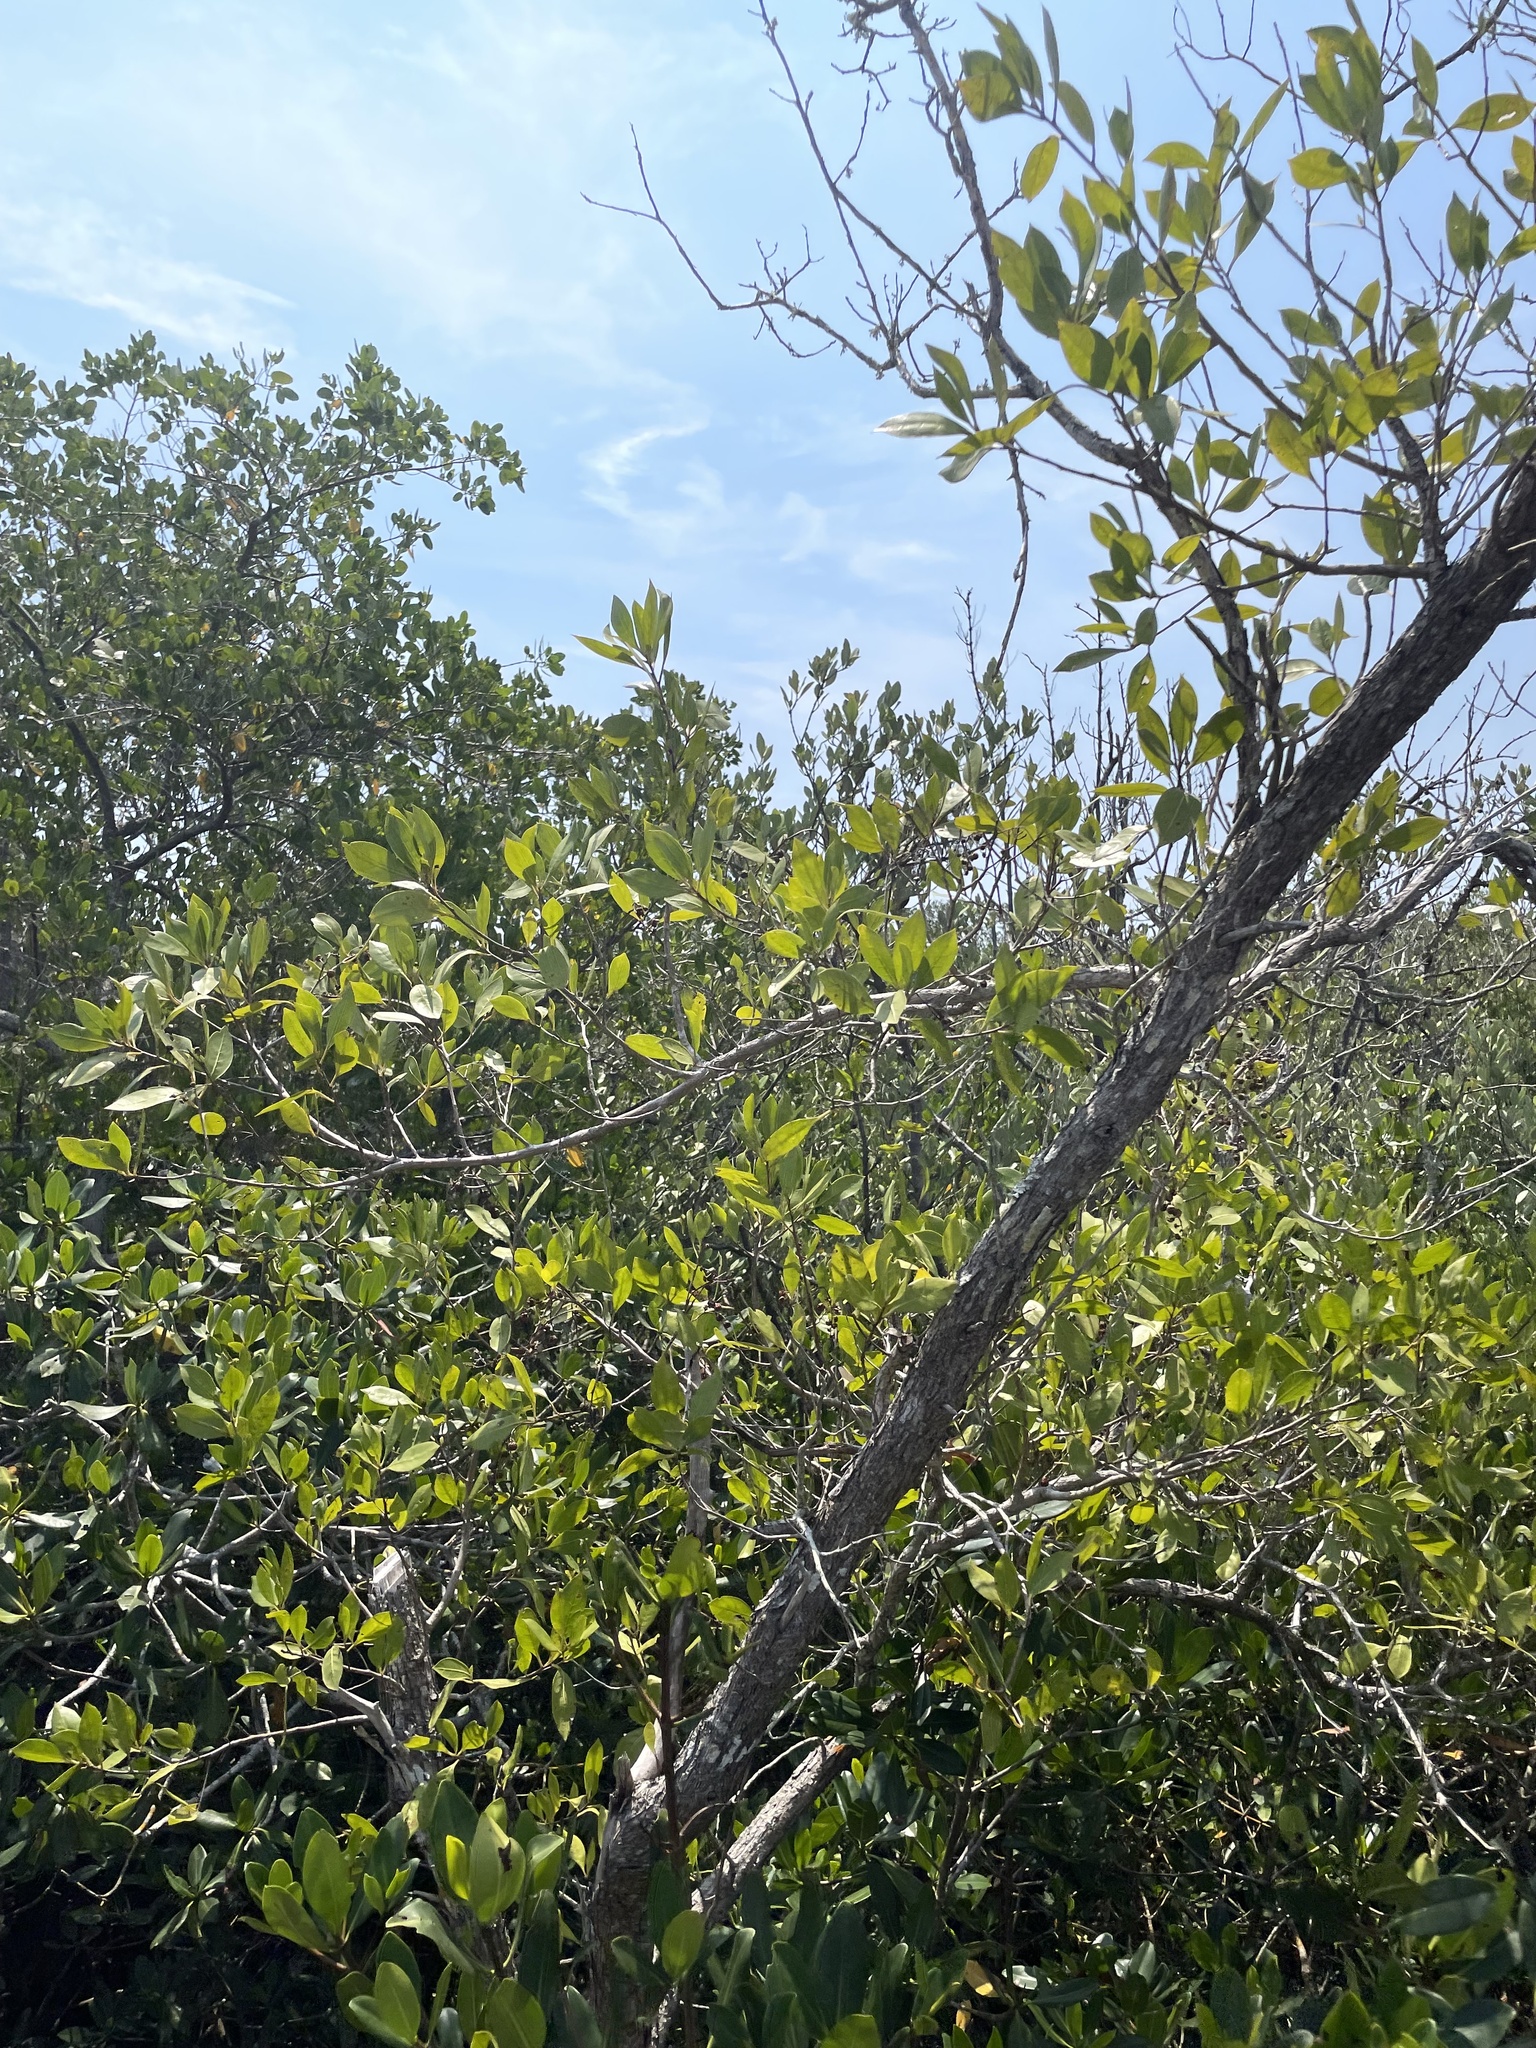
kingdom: Plantae
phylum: Tracheophyta
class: Magnoliopsida
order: Myrtales
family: Combretaceae
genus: Conocarpus
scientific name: Conocarpus erectus
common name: Button mangrove
